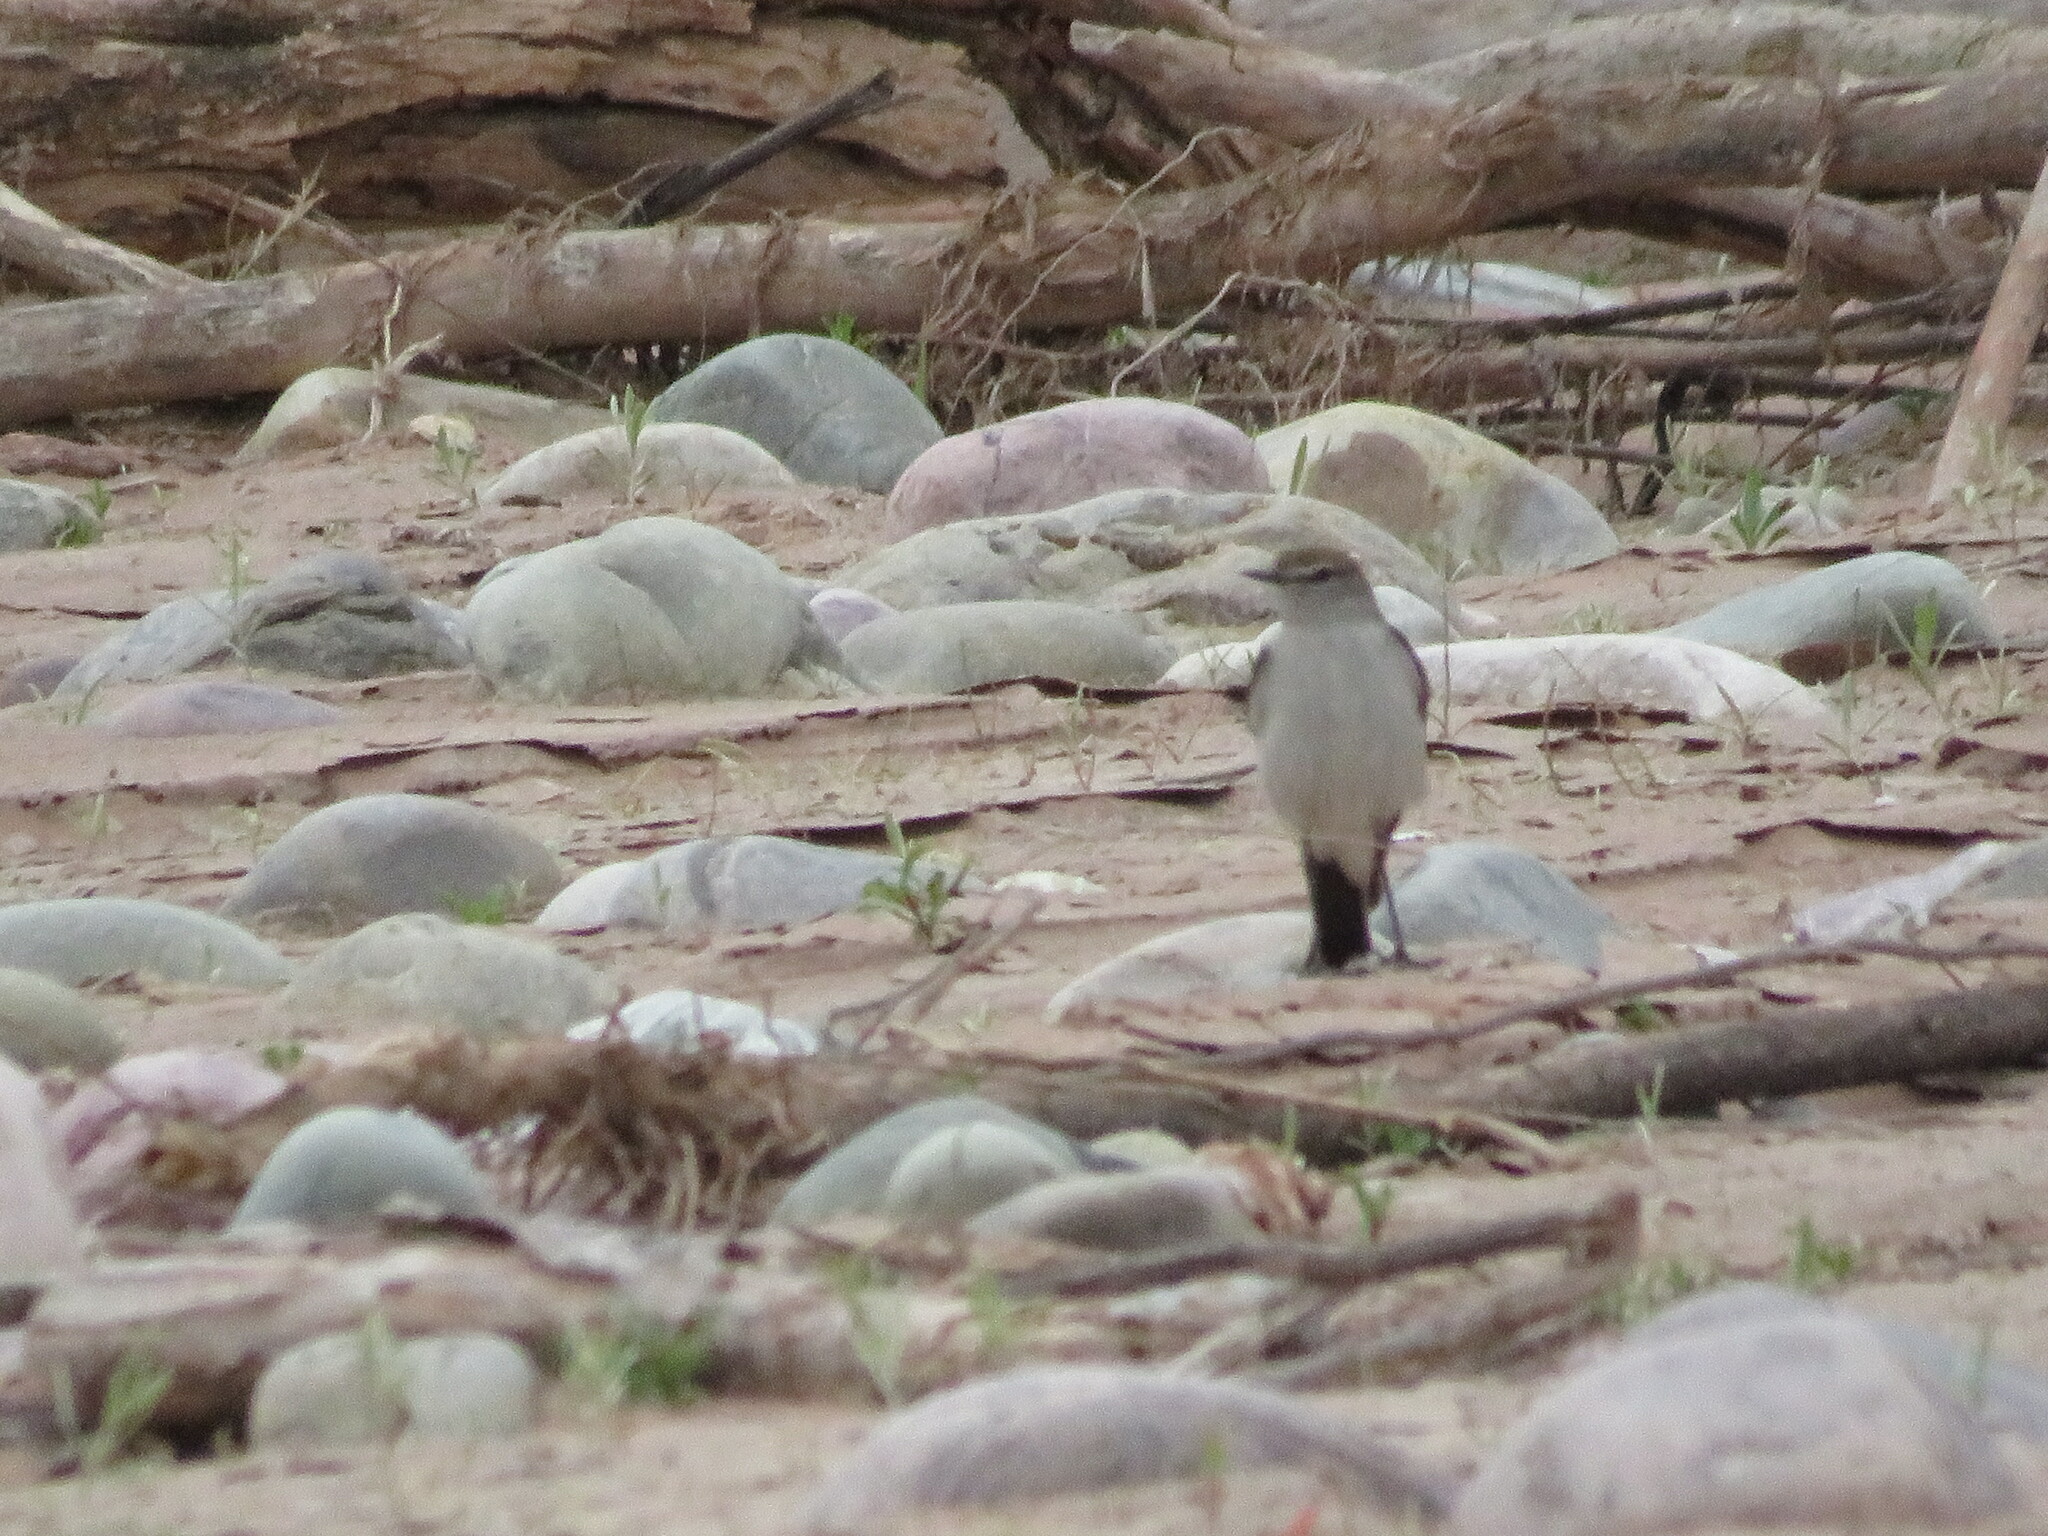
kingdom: Animalia
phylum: Chordata
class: Aves
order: Passeriformes
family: Tyrannidae
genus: Muscisaxicola
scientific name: Muscisaxicola rufivertex
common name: Rufous-naped ground tyrant
